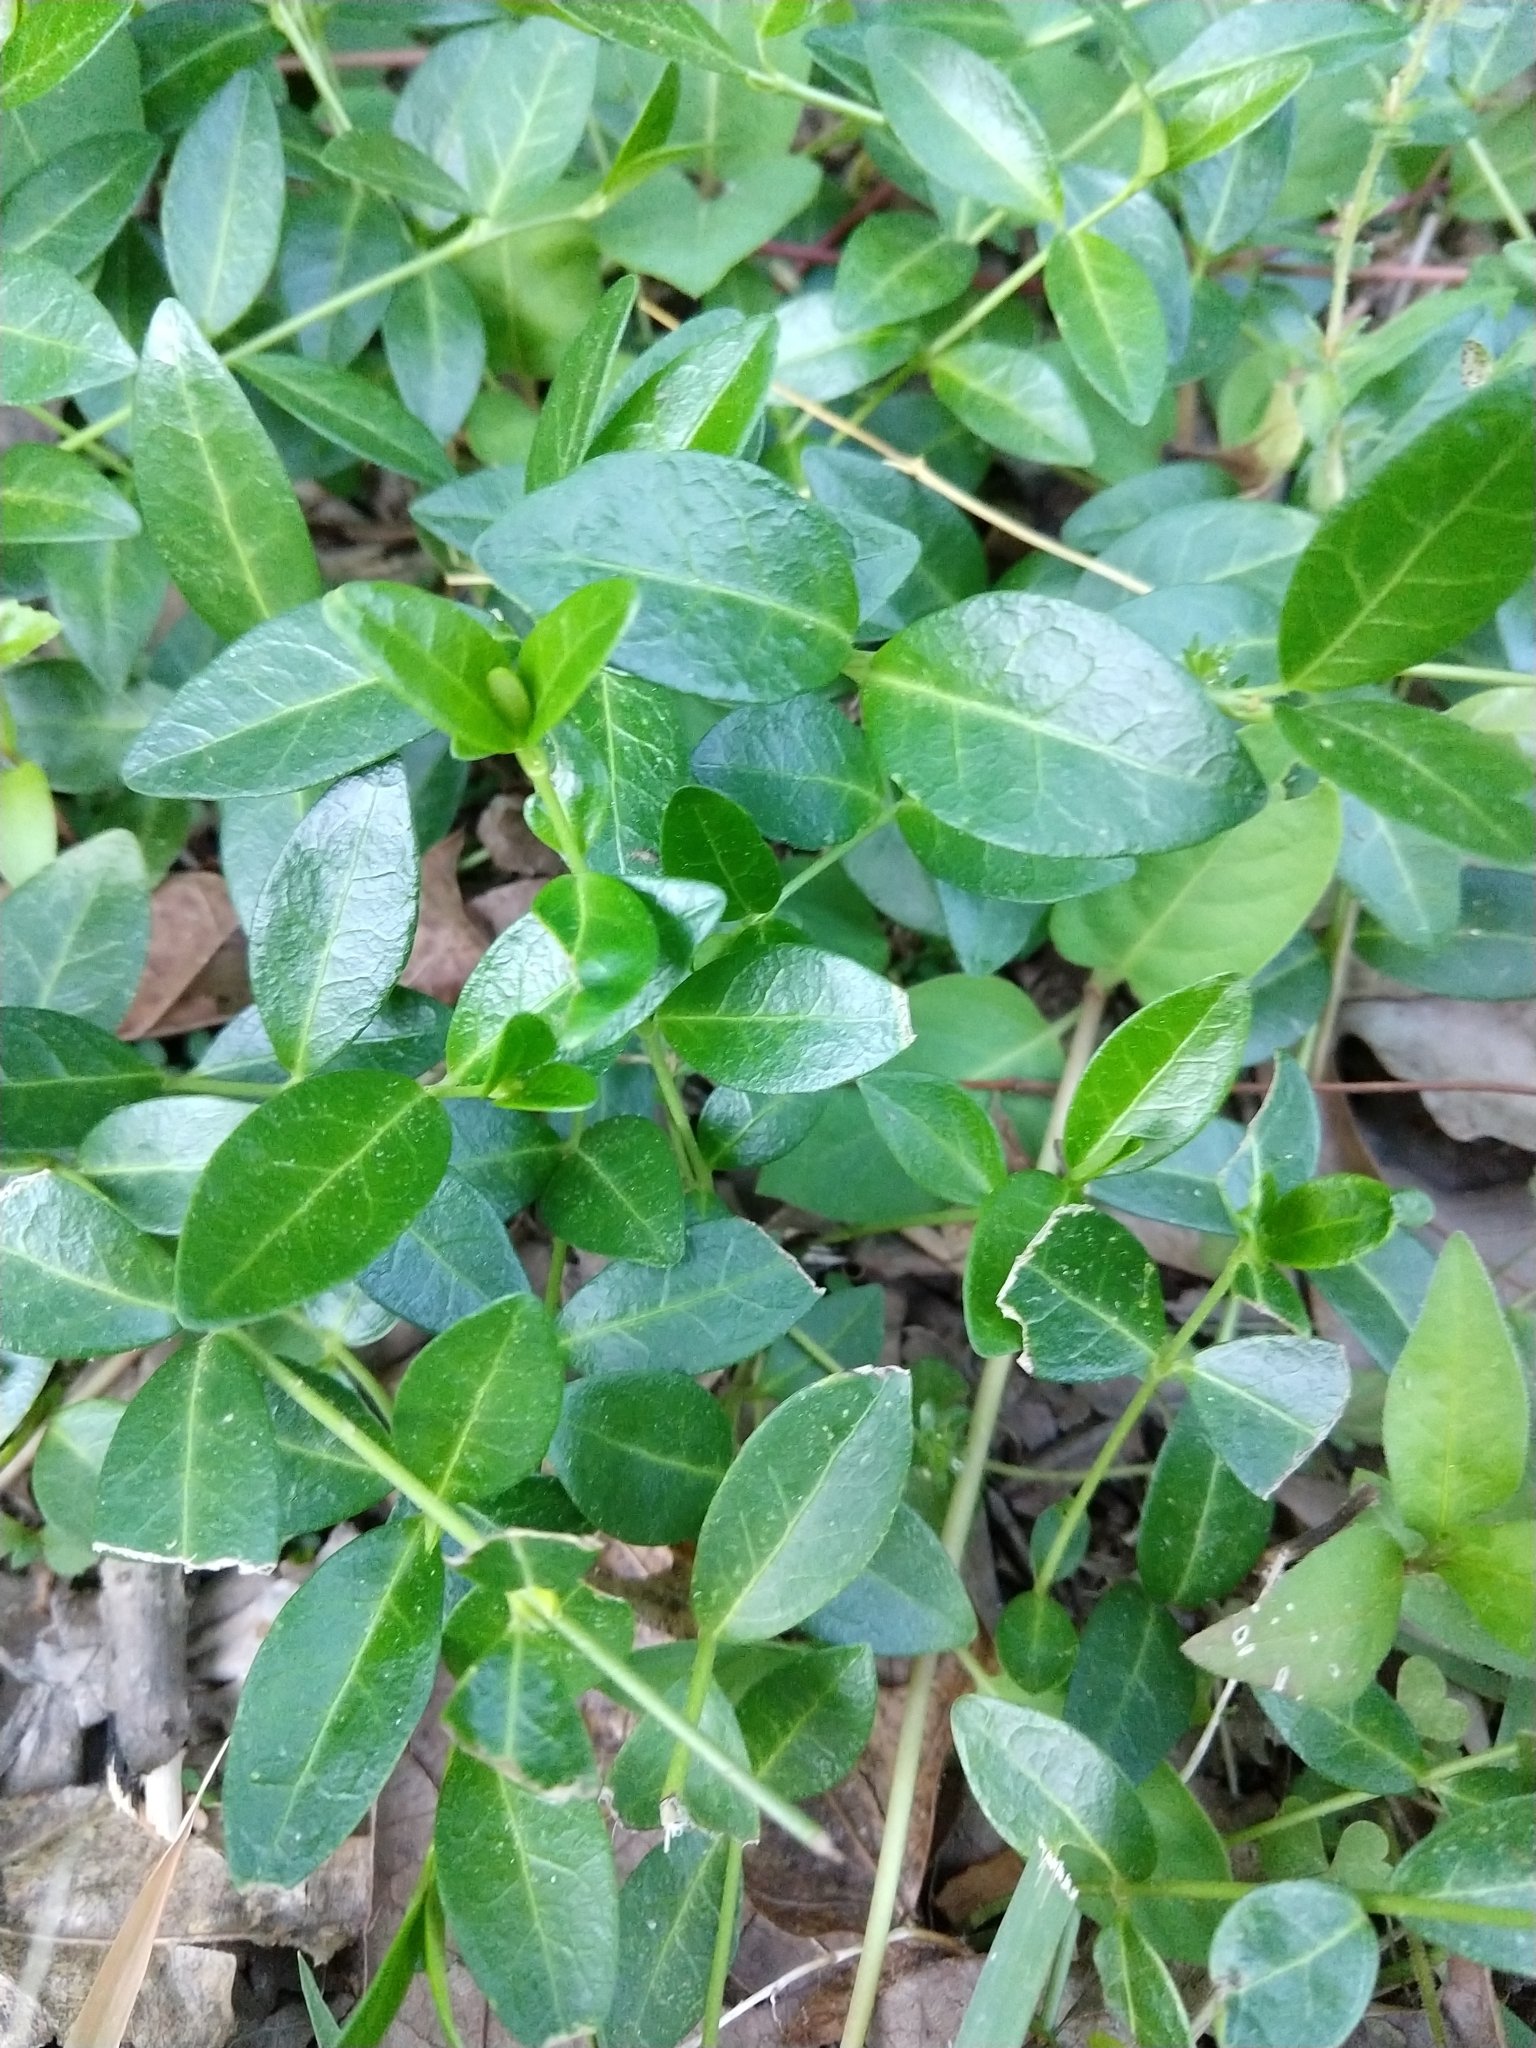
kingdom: Plantae
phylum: Tracheophyta
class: Magnoliopsida
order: Gentianales
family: Apocynaceae
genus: Vinca
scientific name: Vinca
